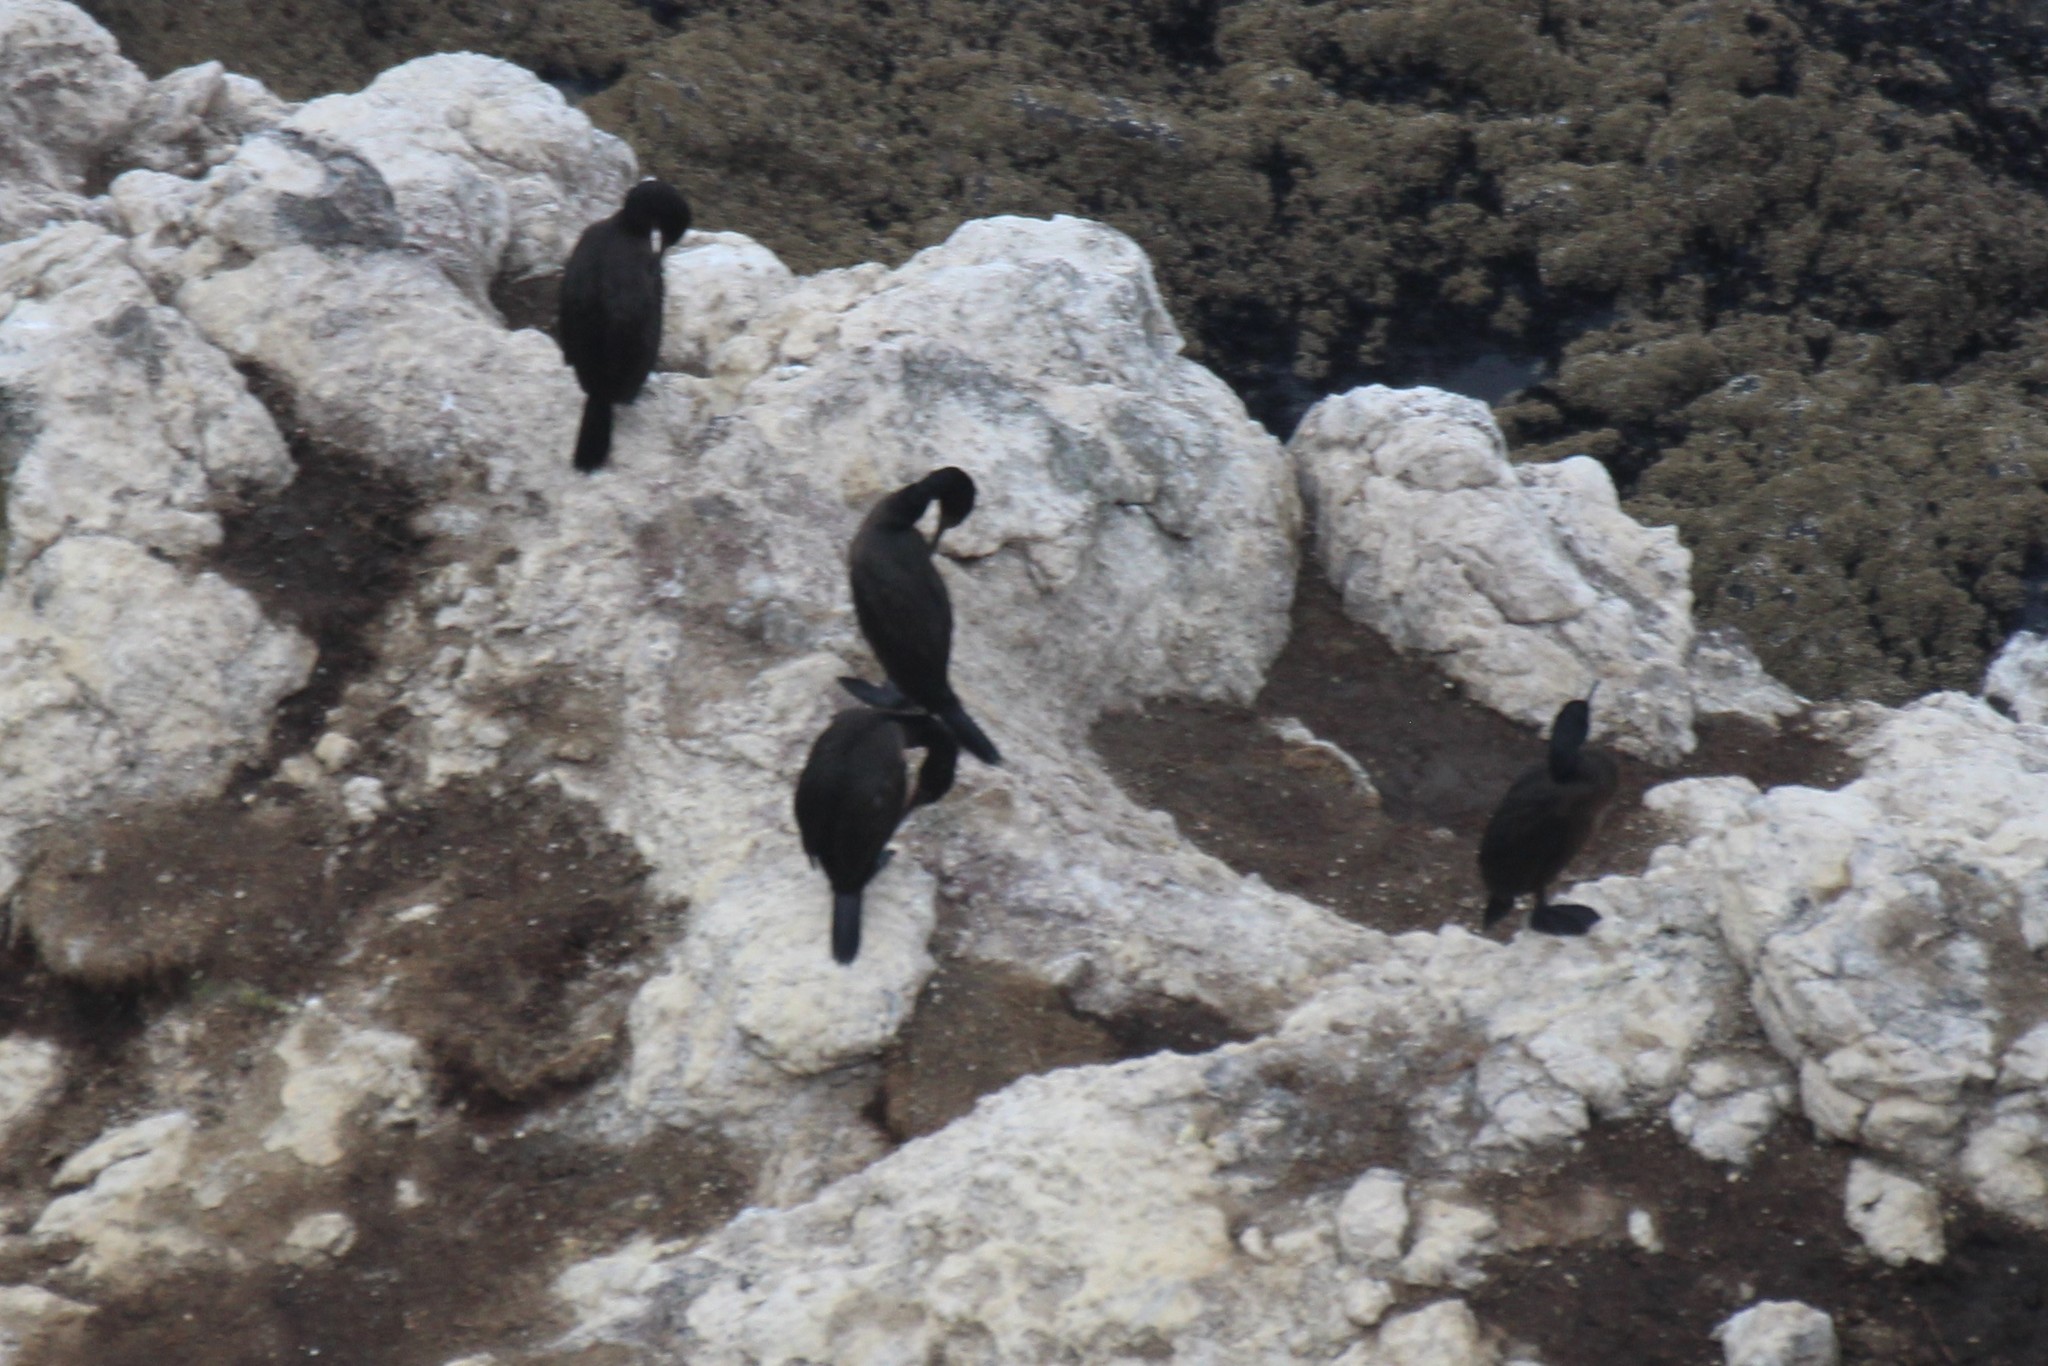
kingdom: Animalia
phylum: Chordata
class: Aves
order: Suliformes
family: Phalacrocoracidae
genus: Phalacrocorax
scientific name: Phalacrocorax pelagicus
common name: Pelagic cormorant
